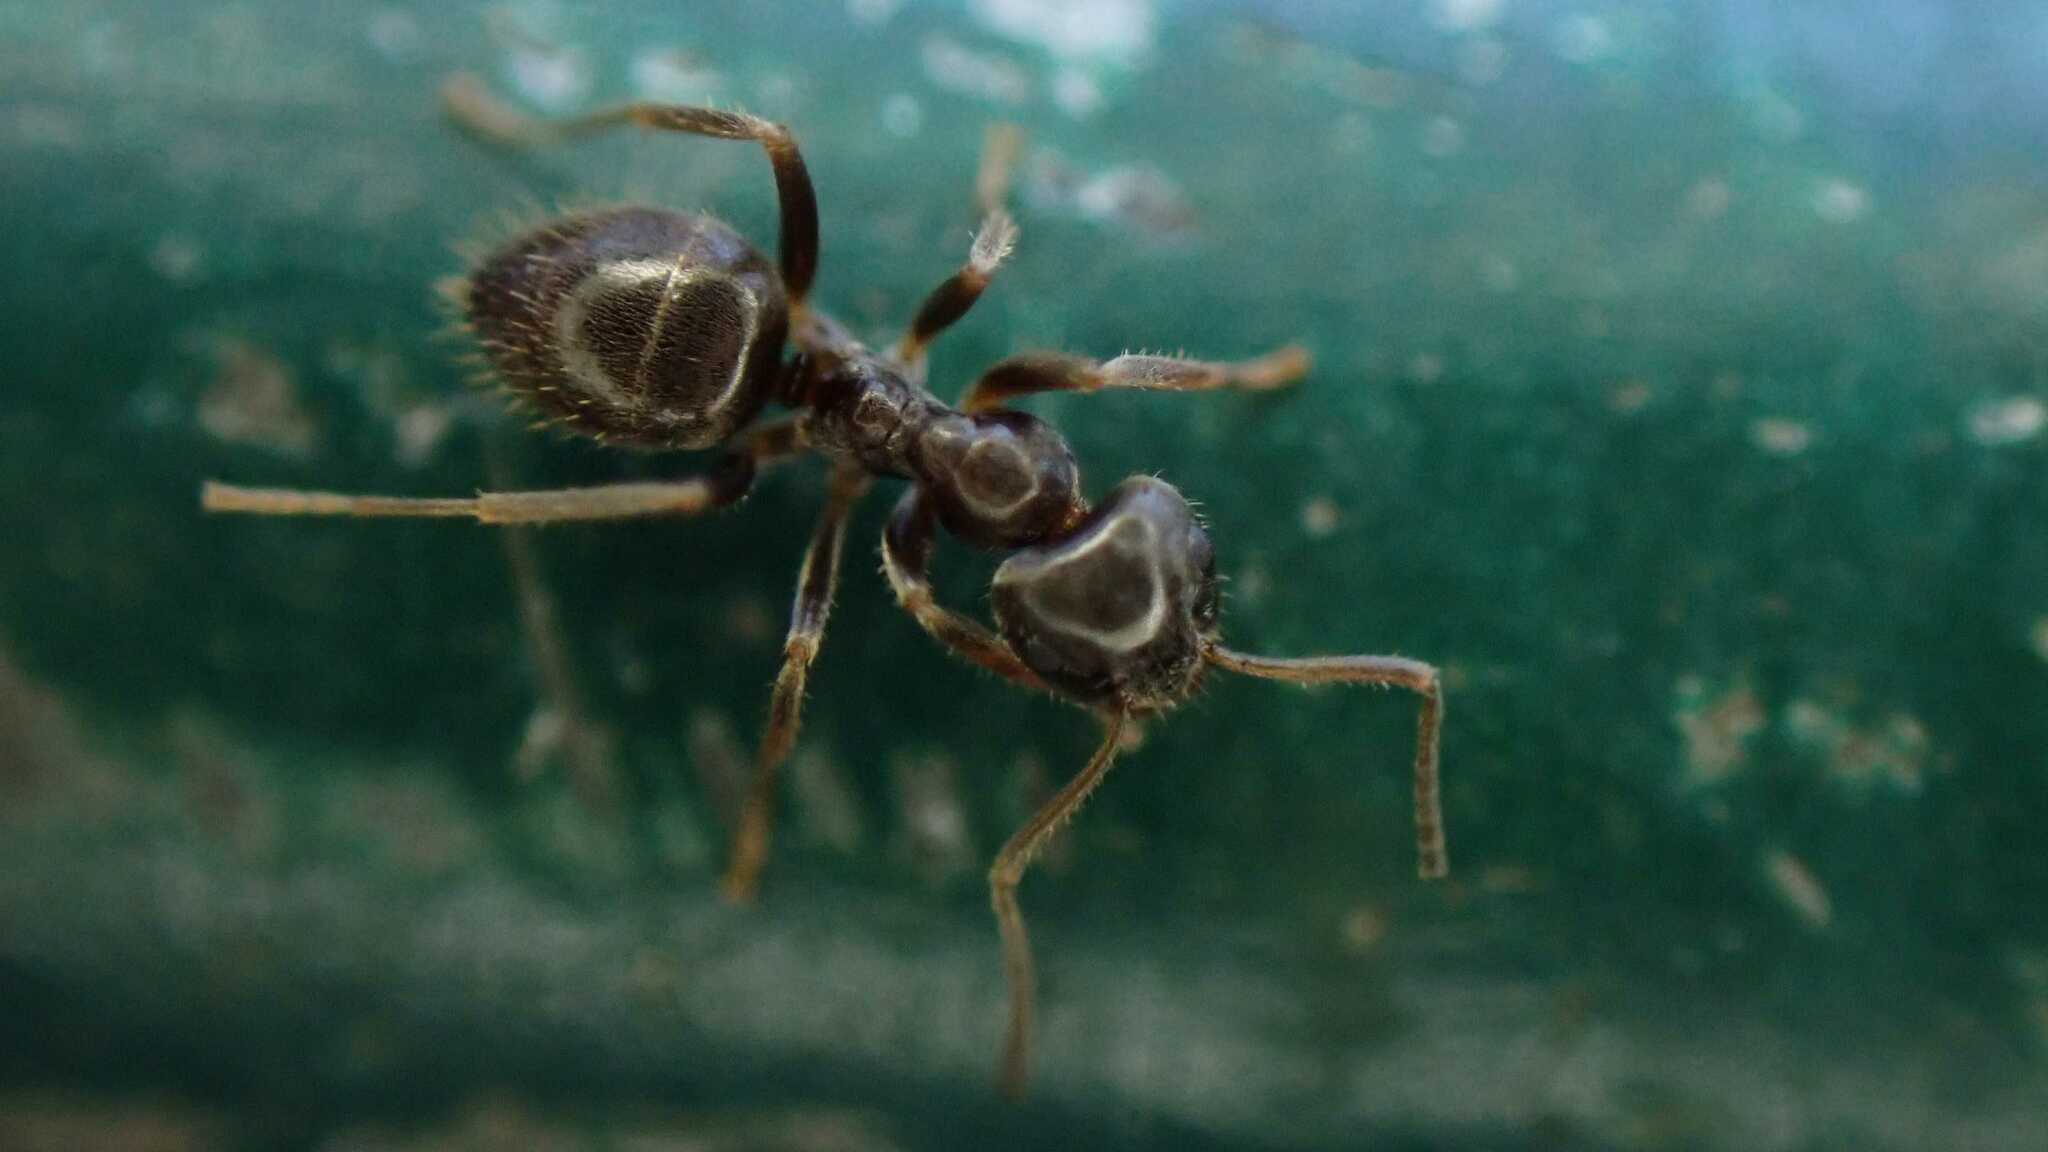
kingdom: Animalia
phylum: Arthropoda
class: Insecta
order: Hymenoptera
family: Formicidae
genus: Lasius
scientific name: Lasius
